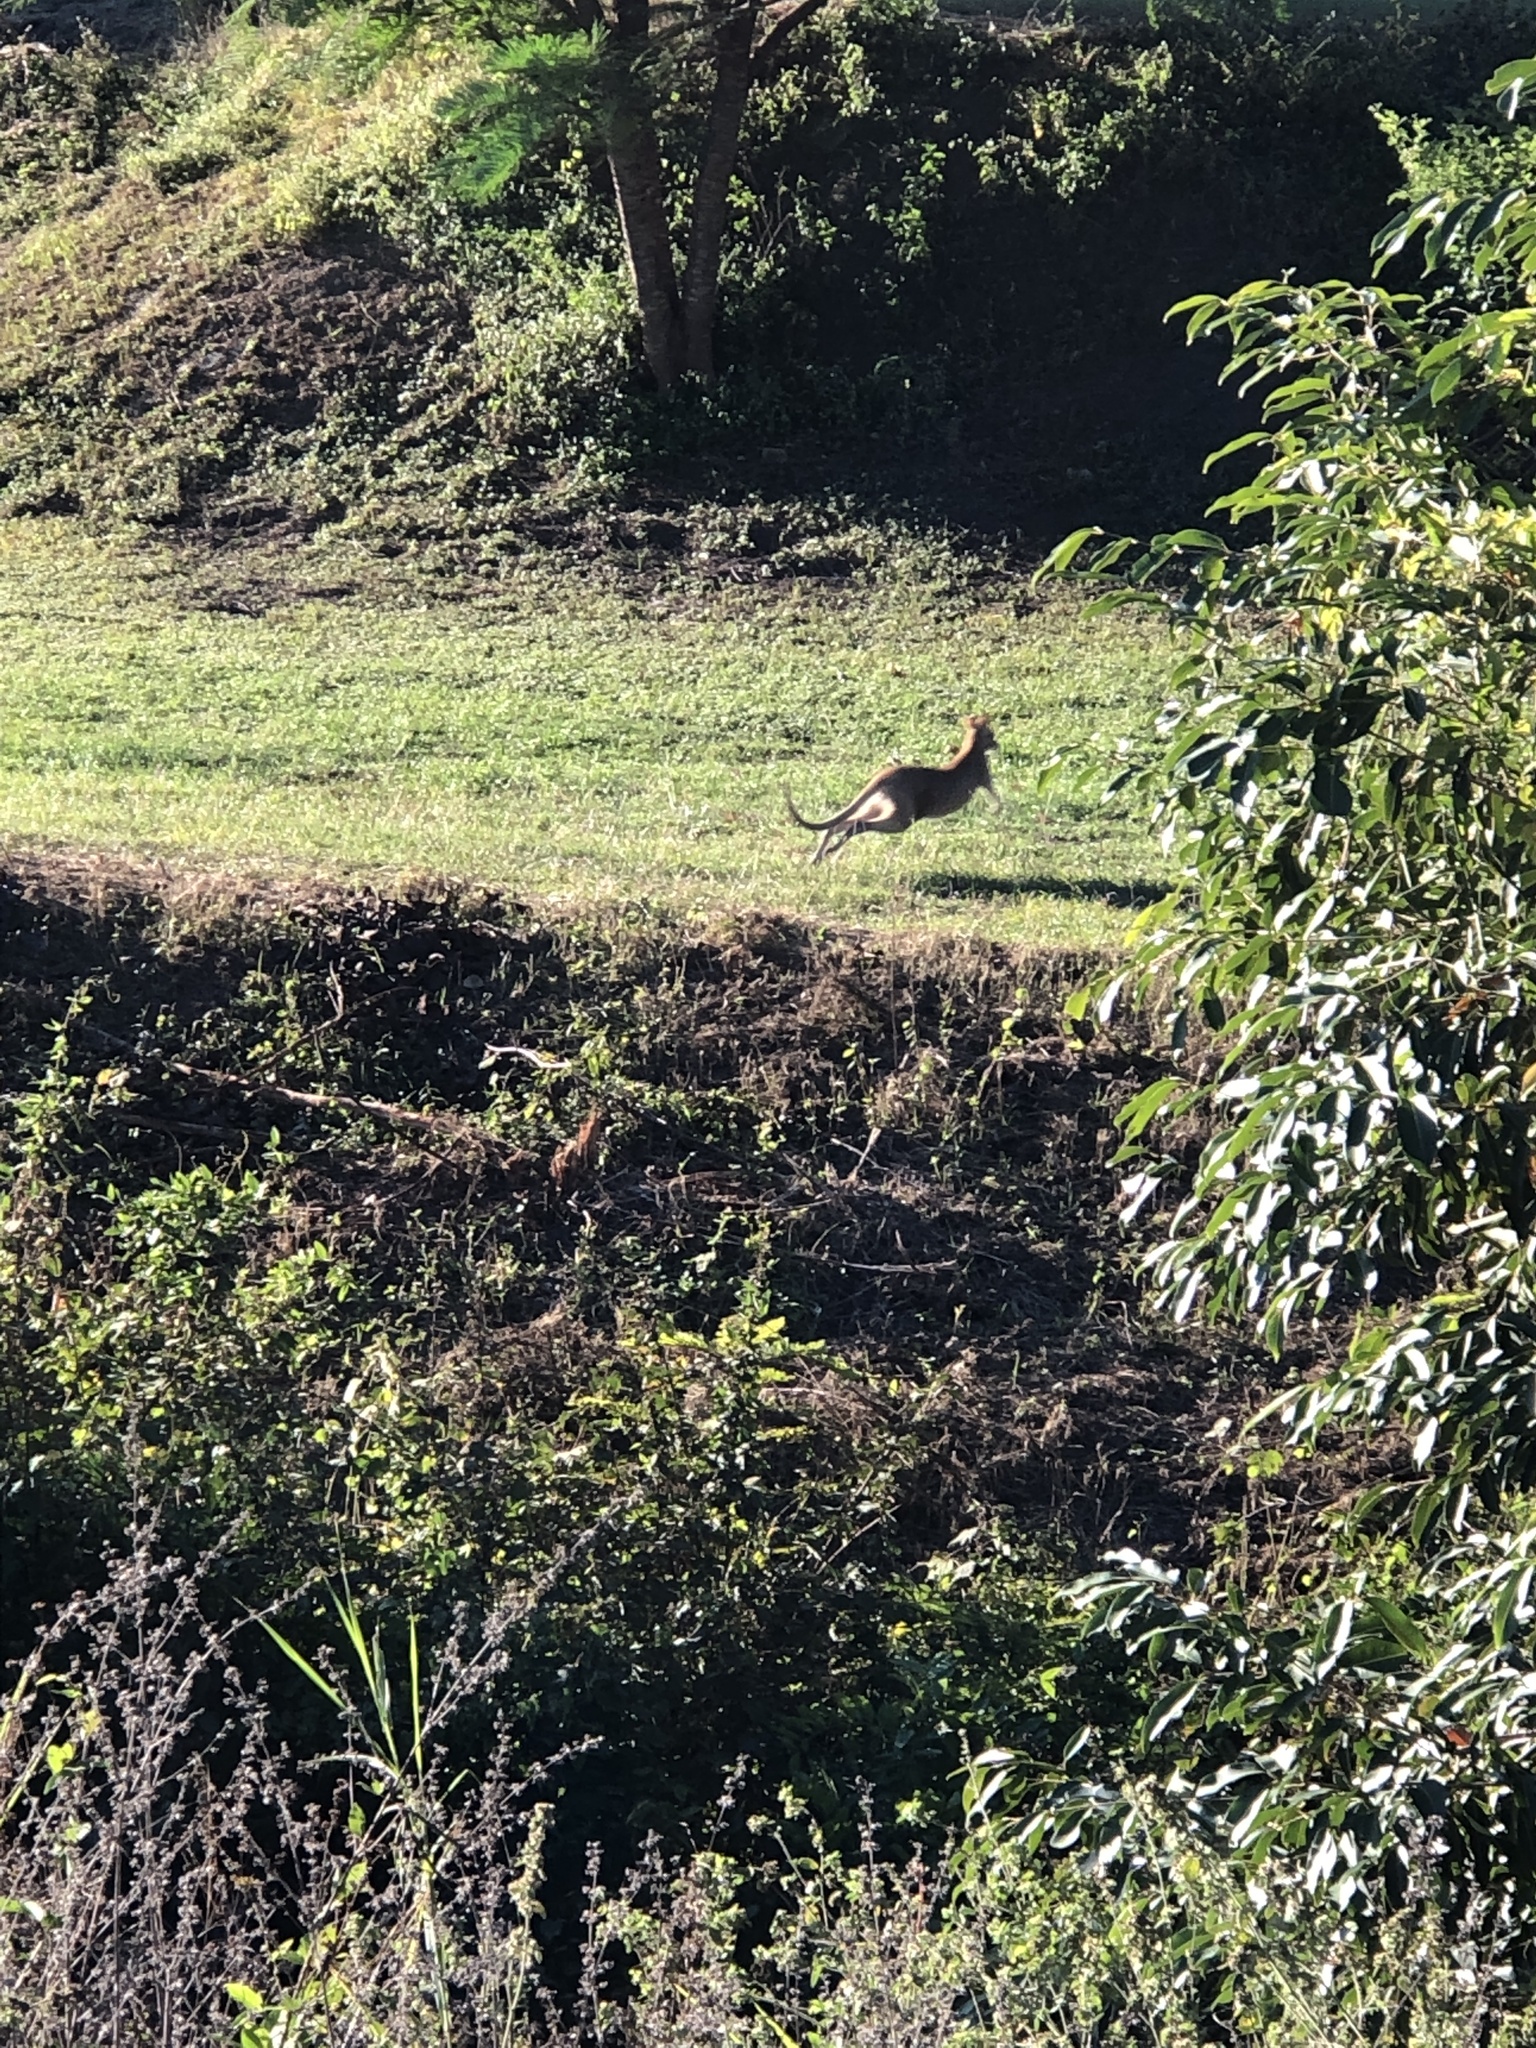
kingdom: Animalia
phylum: Chordata
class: Mammalia
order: Diprotodontia
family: Macropodidae
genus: Macropus
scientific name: Macropus agilis
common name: Agile wallaby
